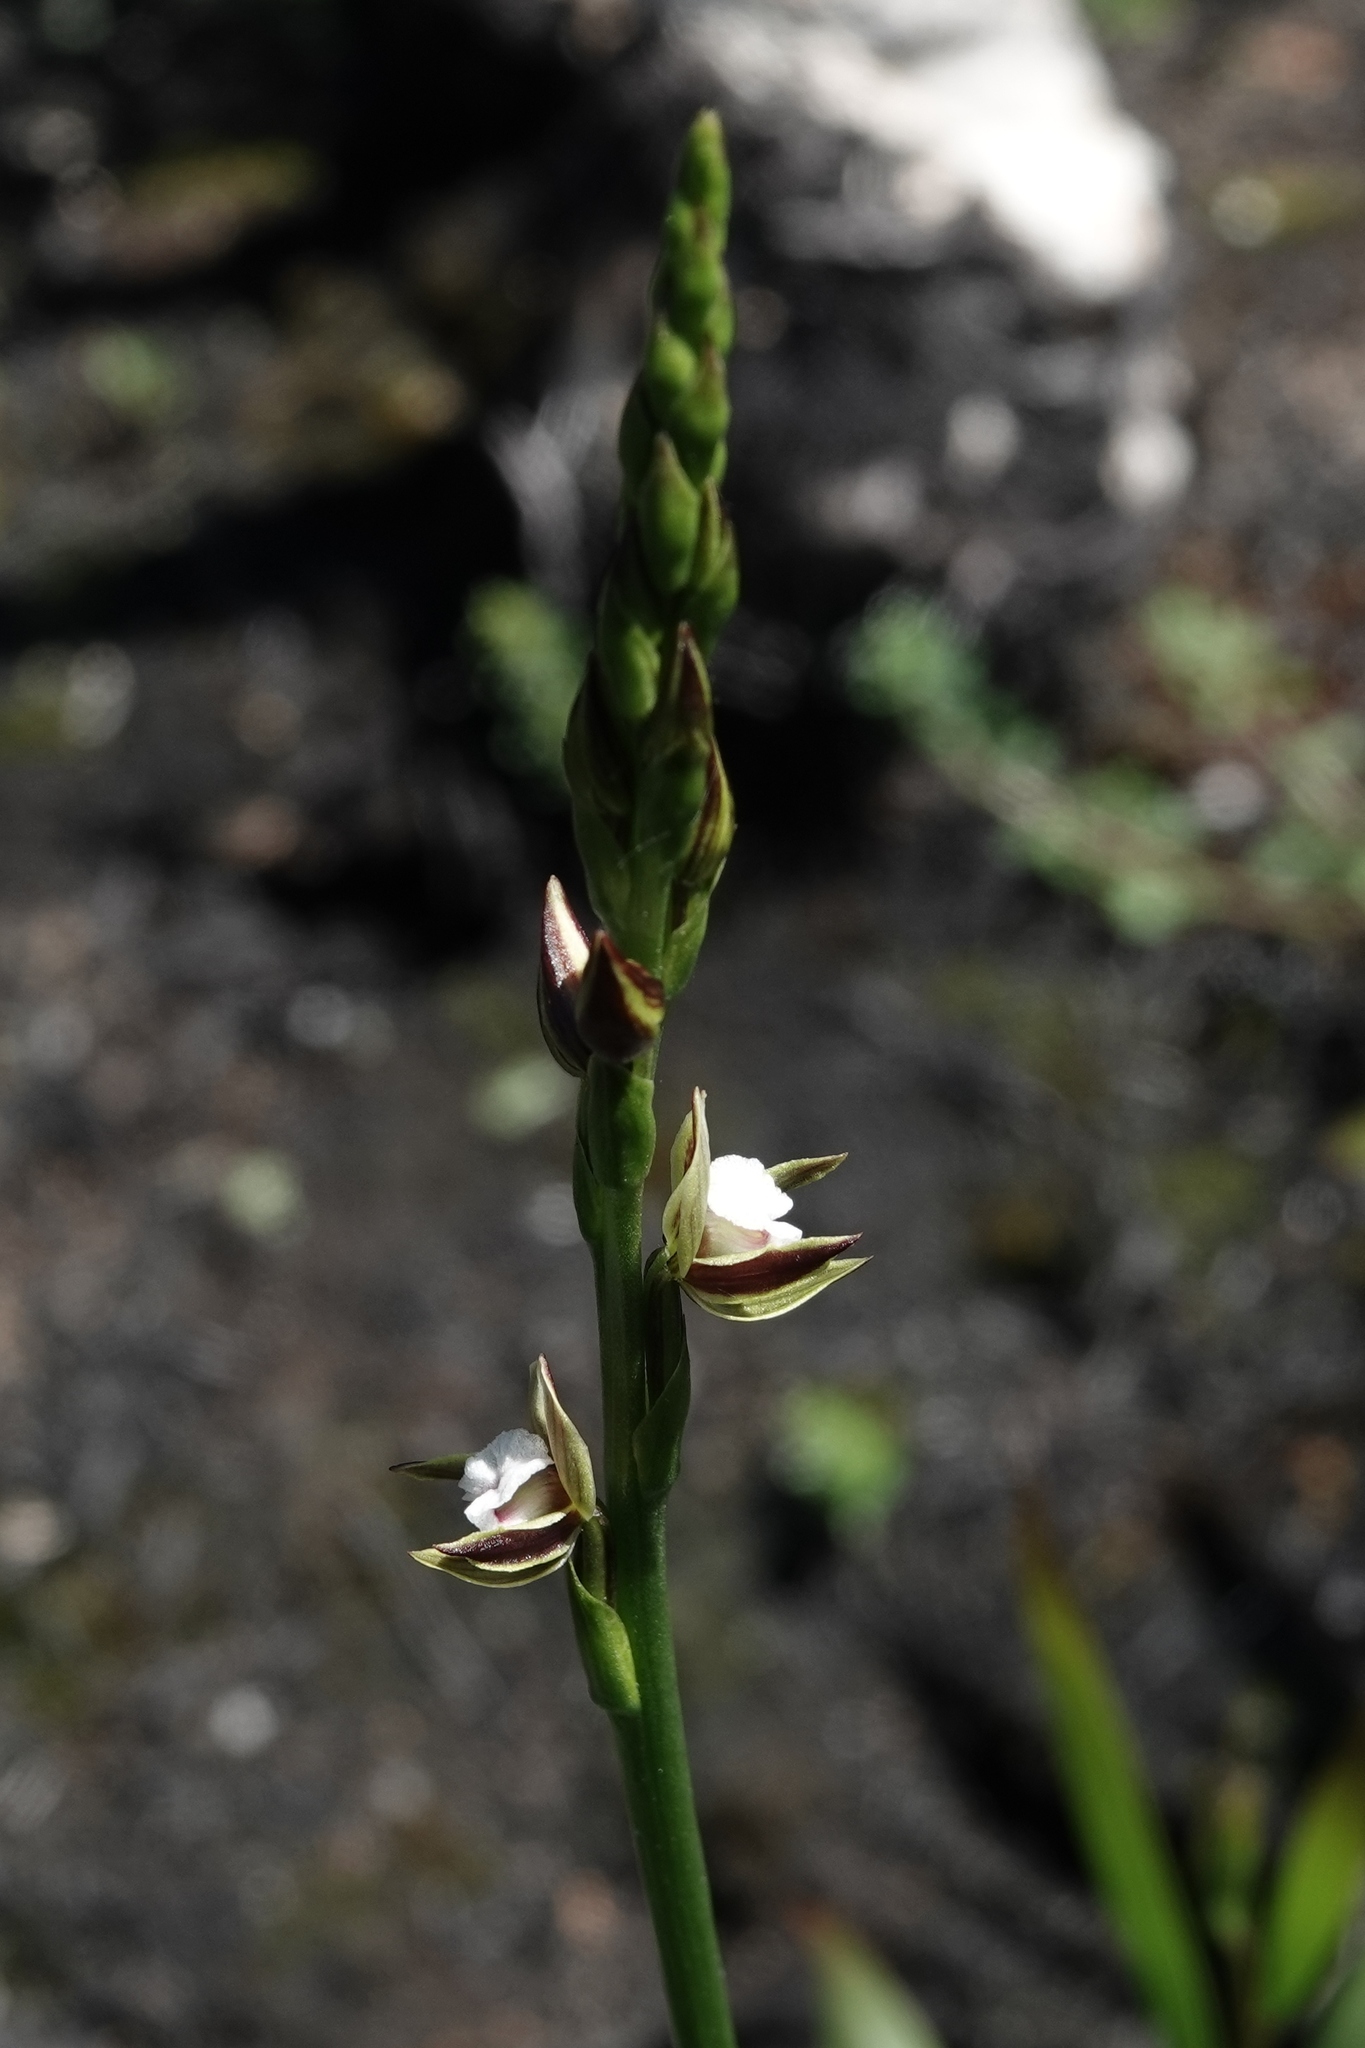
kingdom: Plantae
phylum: Tracheophyta
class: Liliopsida
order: Asparagales
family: Orchidaceae
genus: Prasophyllum
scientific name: Prasophyllum australe
